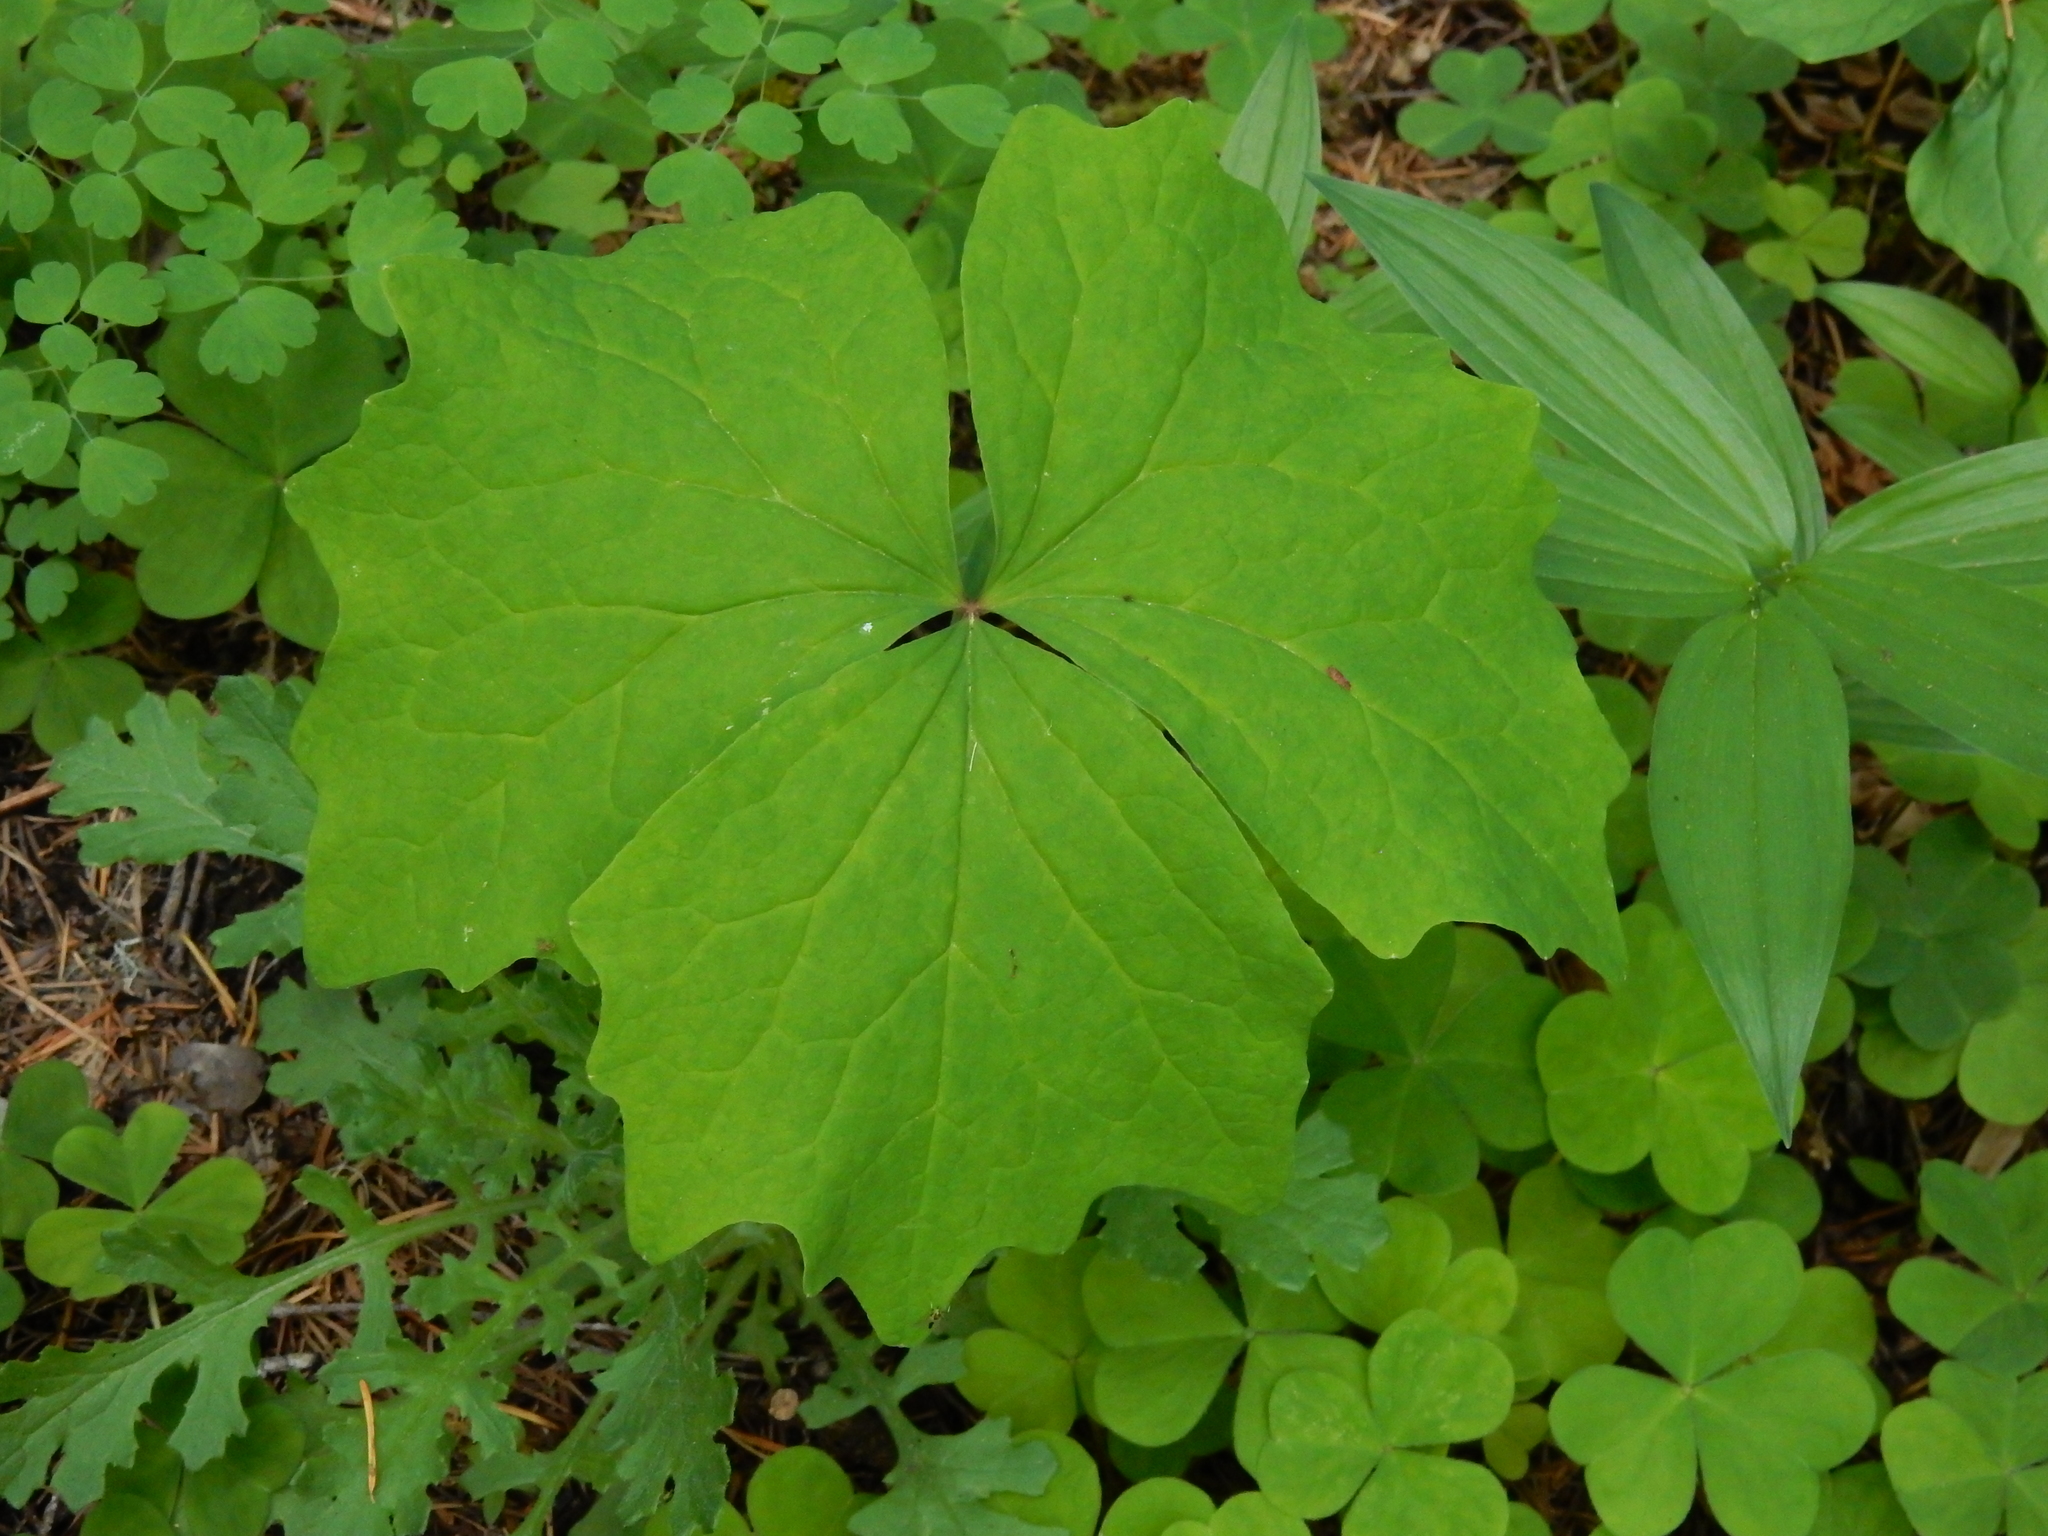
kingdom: Plantae
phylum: Tracheophyta
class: Magnoliopsida
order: Ranunculales
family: Berberidaceae
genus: Achlys
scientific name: Achlys californica
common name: California deer-foot
